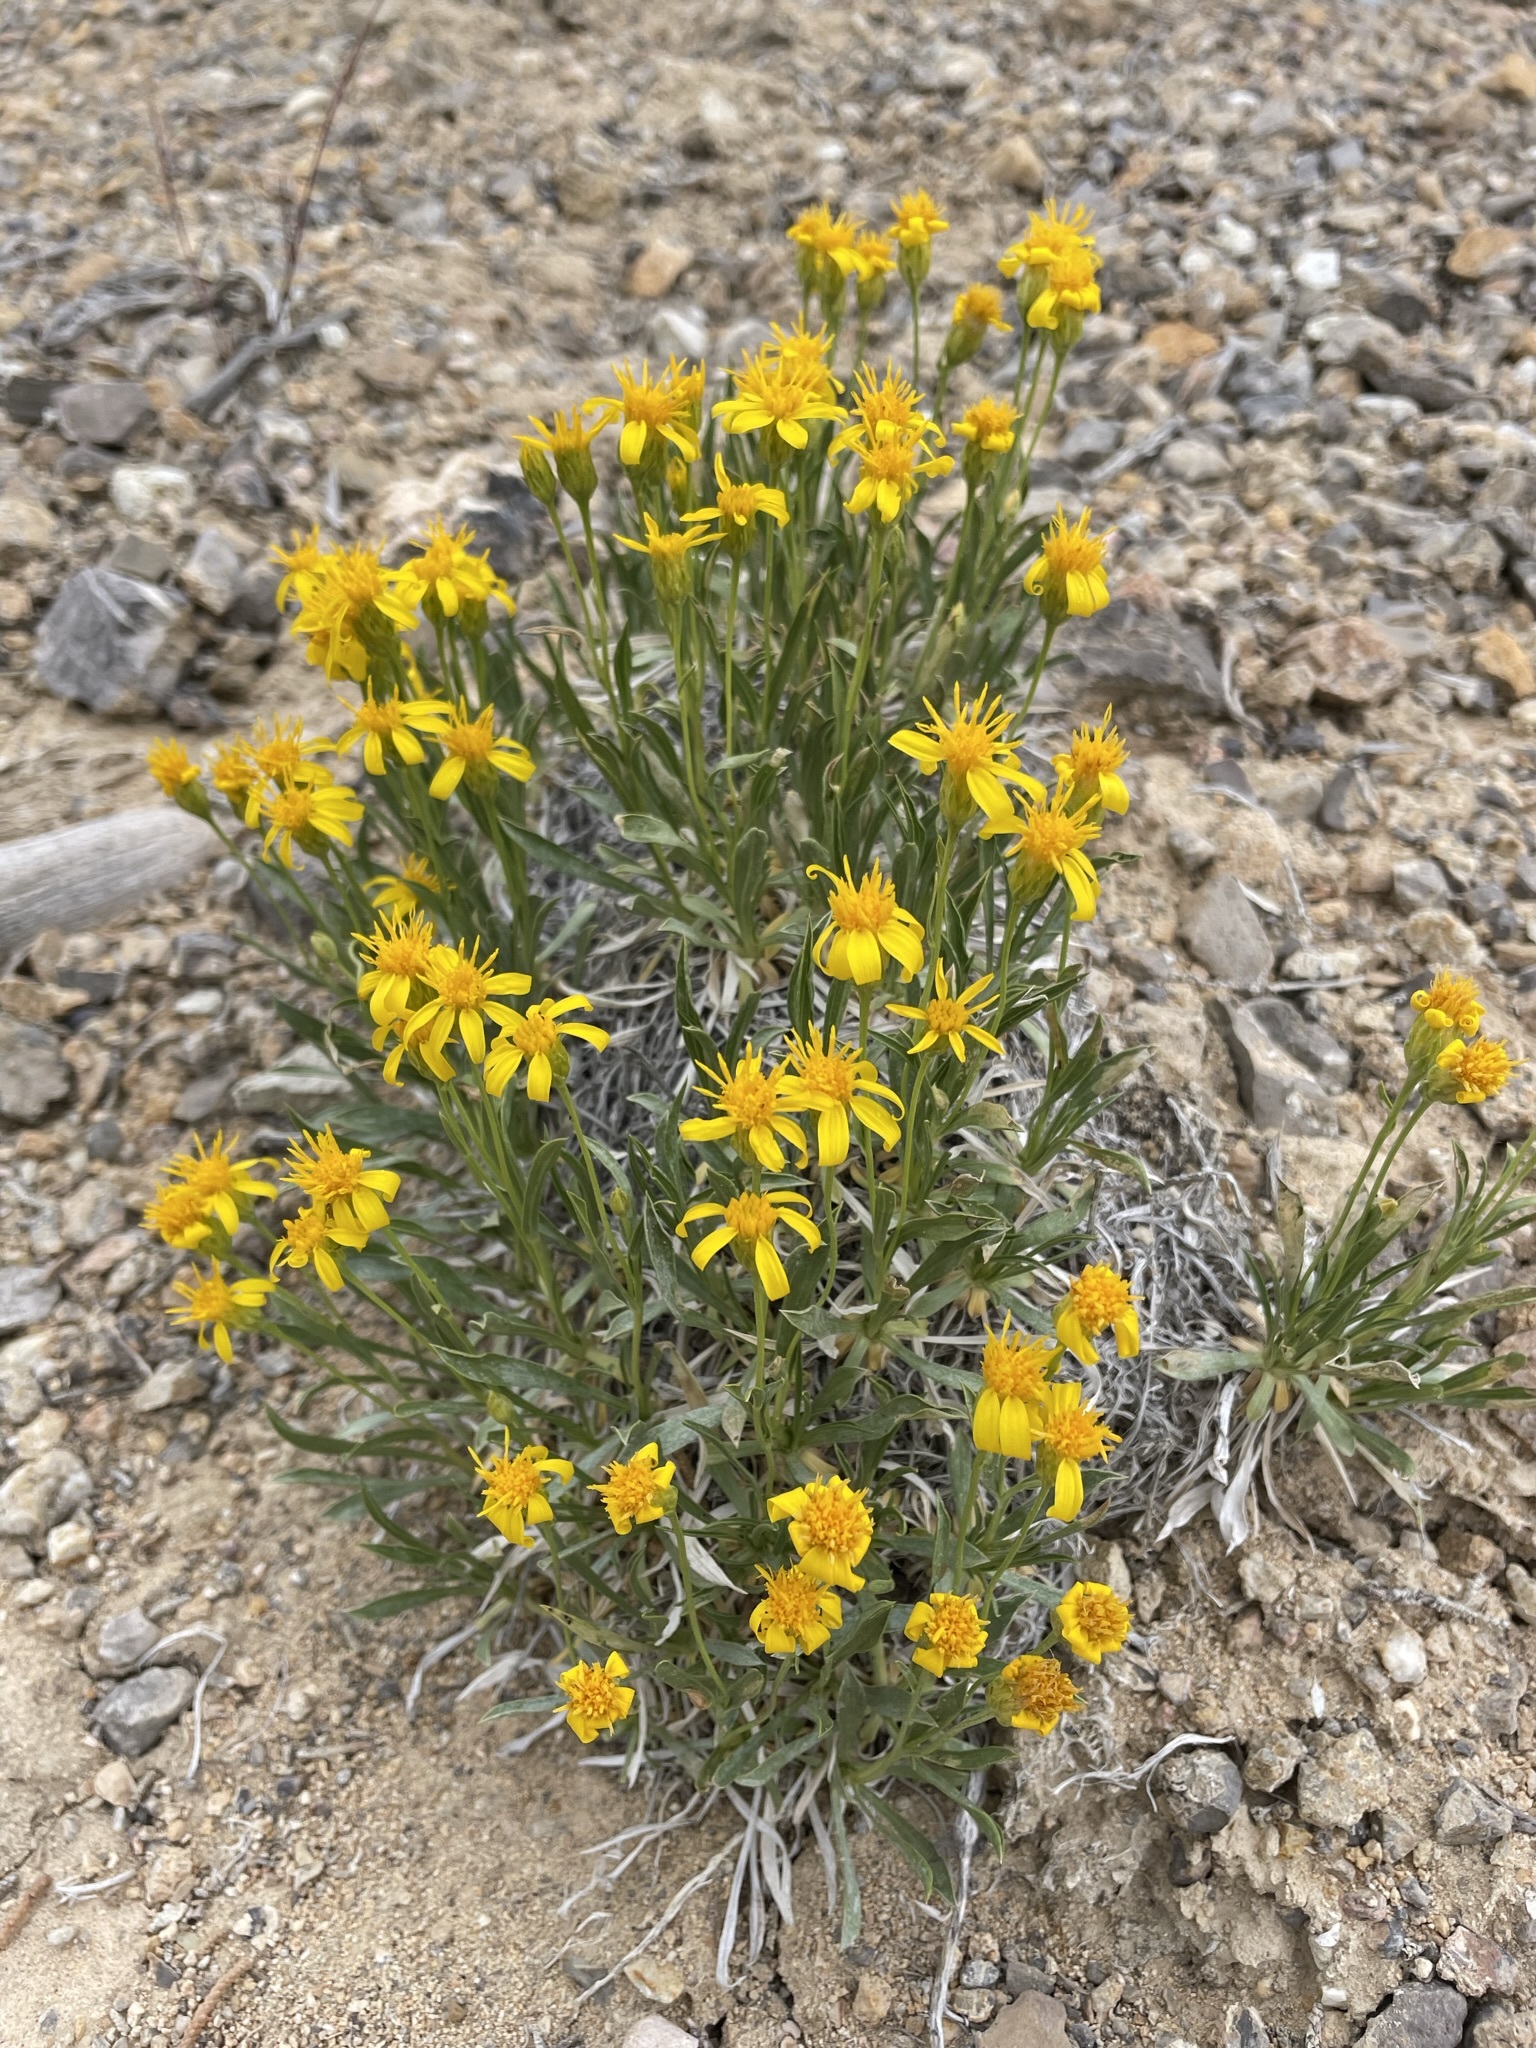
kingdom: Plantae
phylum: Tracheophyta
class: Magnoliopsida
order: Asterales
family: Asteraceae
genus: Stenotus
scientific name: Stenotus acaulis
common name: Stemless goldenweed
